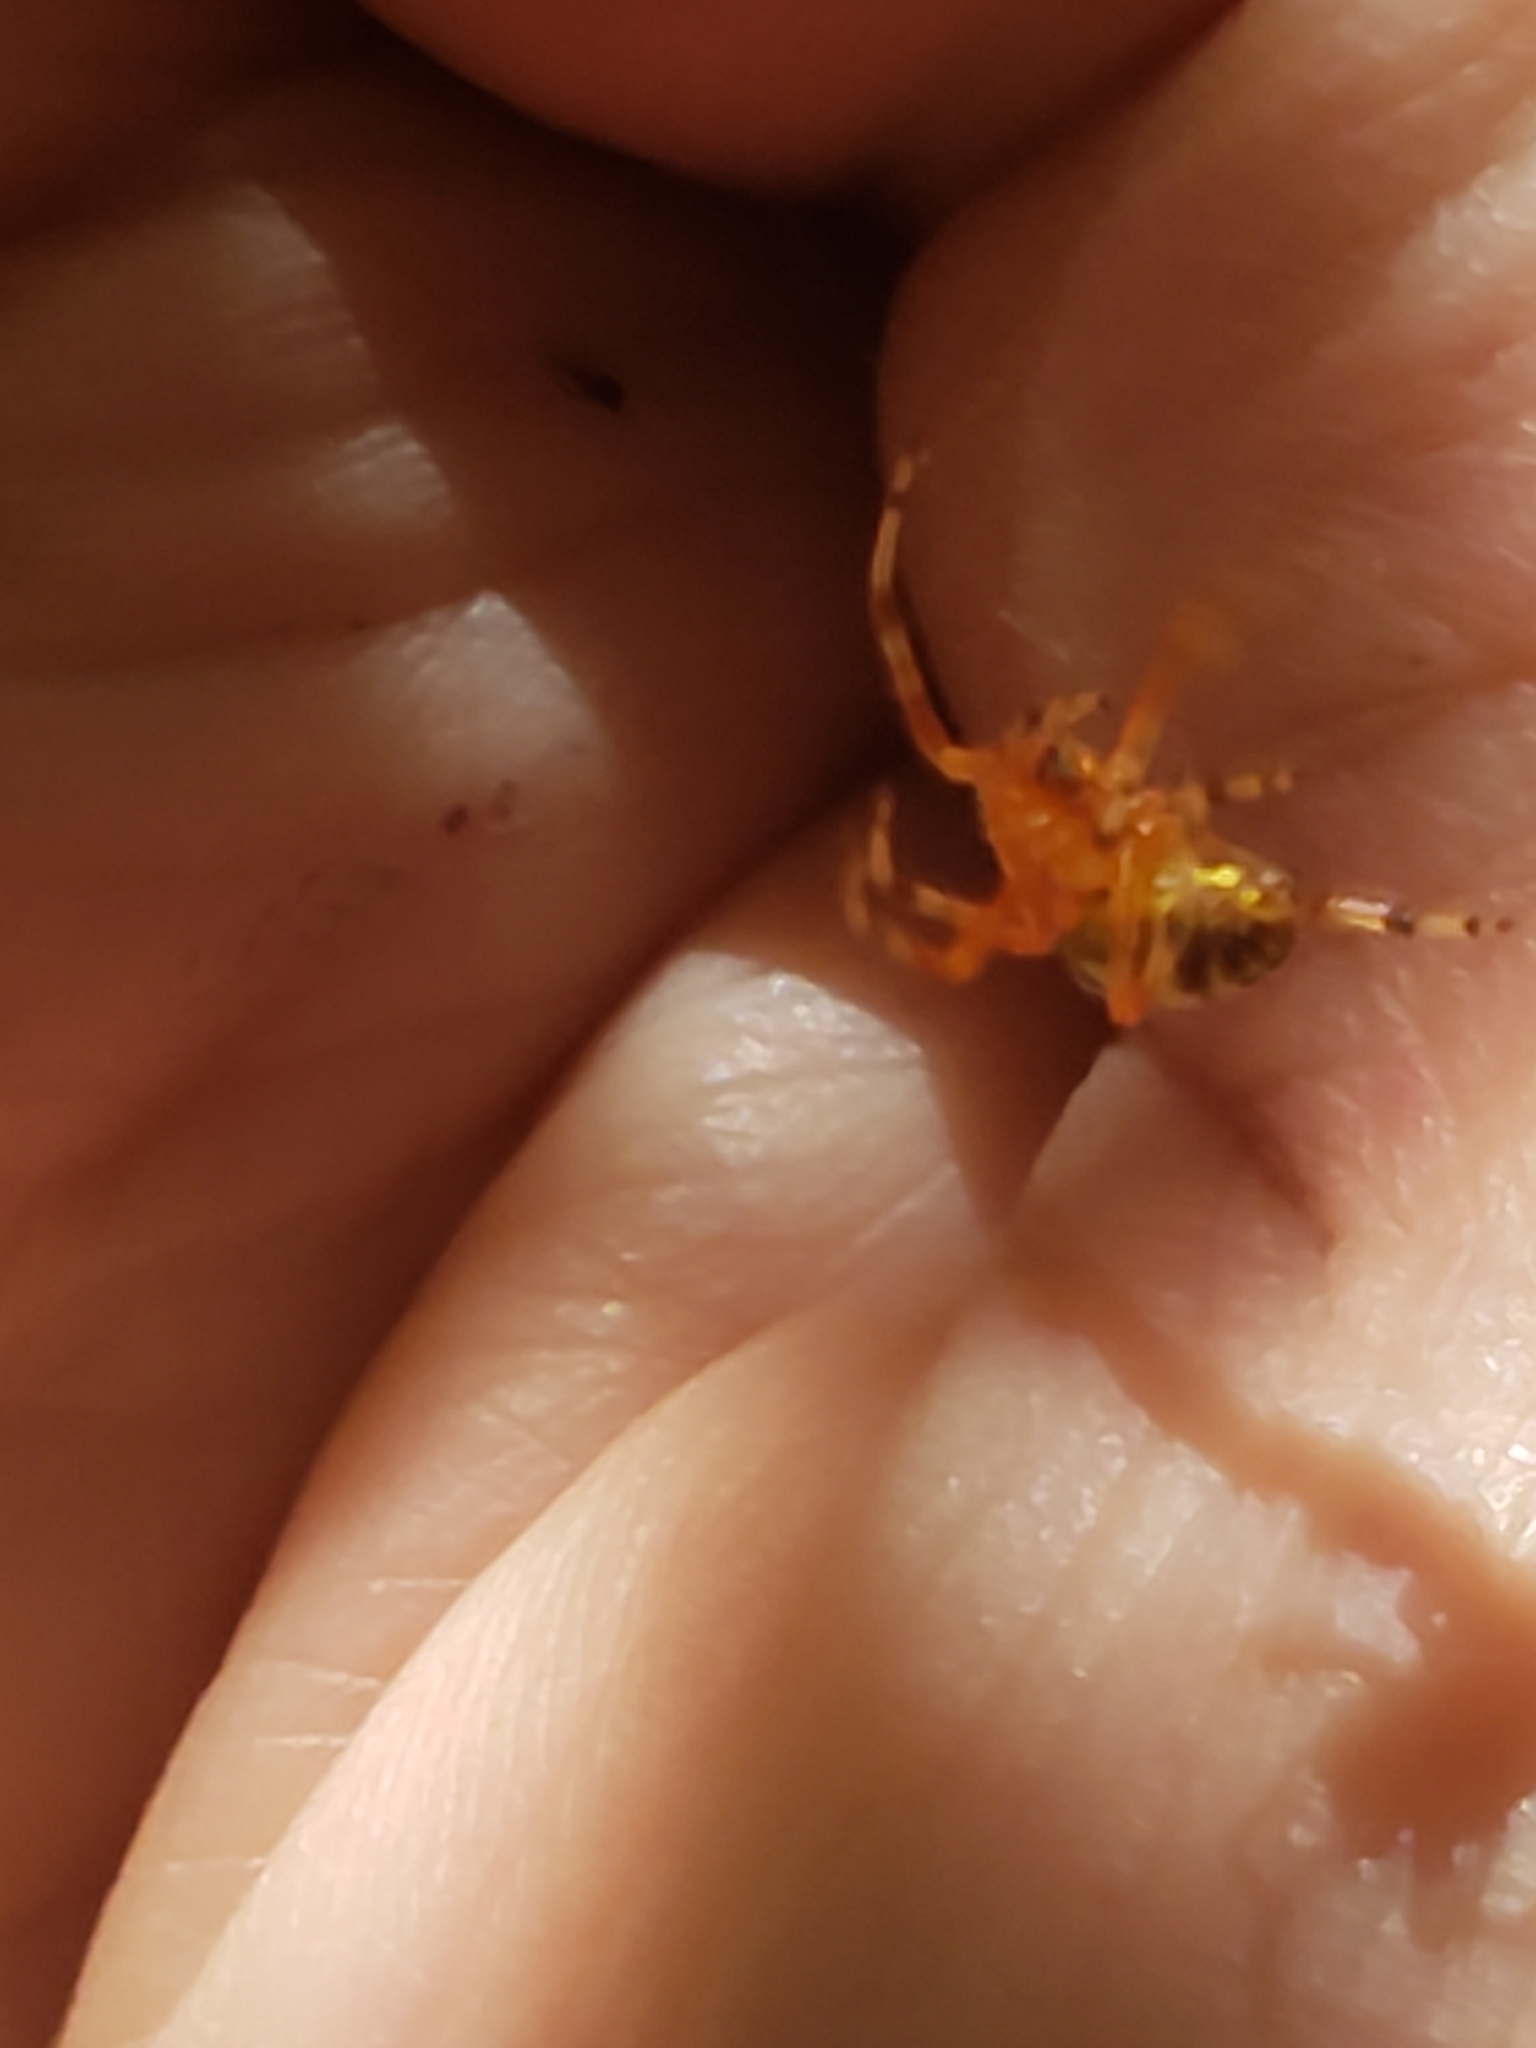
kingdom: Animalia
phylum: Arthropoda
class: Arachnida
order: Araneae
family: Araneidae
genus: Araneus
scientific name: Araneus marmoreus
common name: Marbled orbweaver
